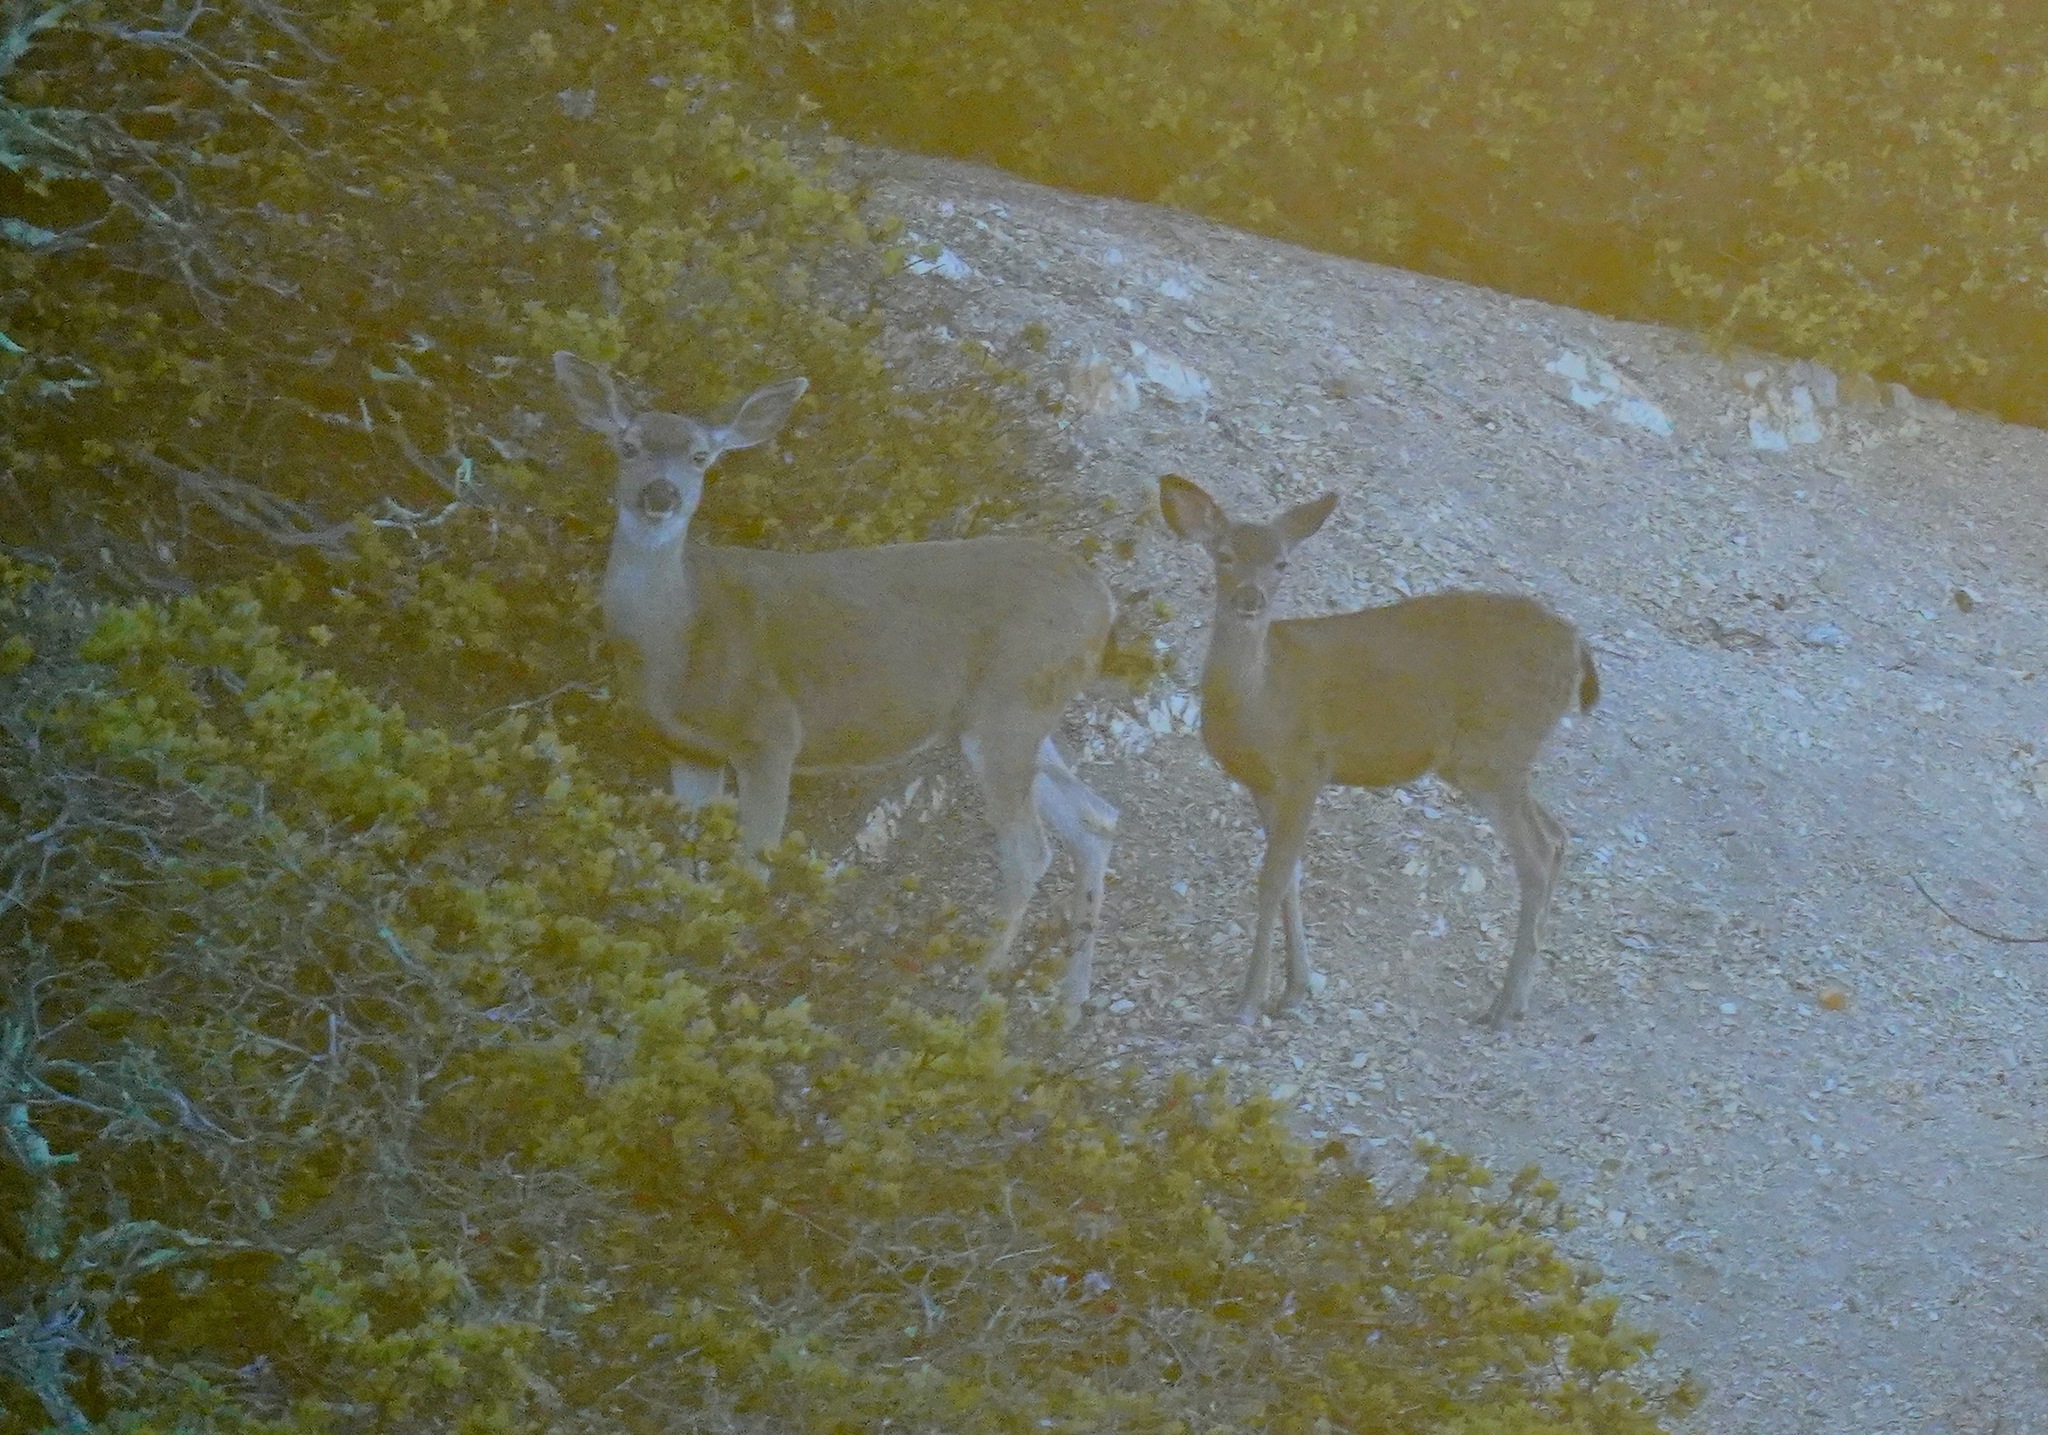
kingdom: Animalia
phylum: Chordata
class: Mammalia
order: Artiodactyla
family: Cervidae
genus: Odocoileus
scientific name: Odocoileus hemionus
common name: Mule deer
